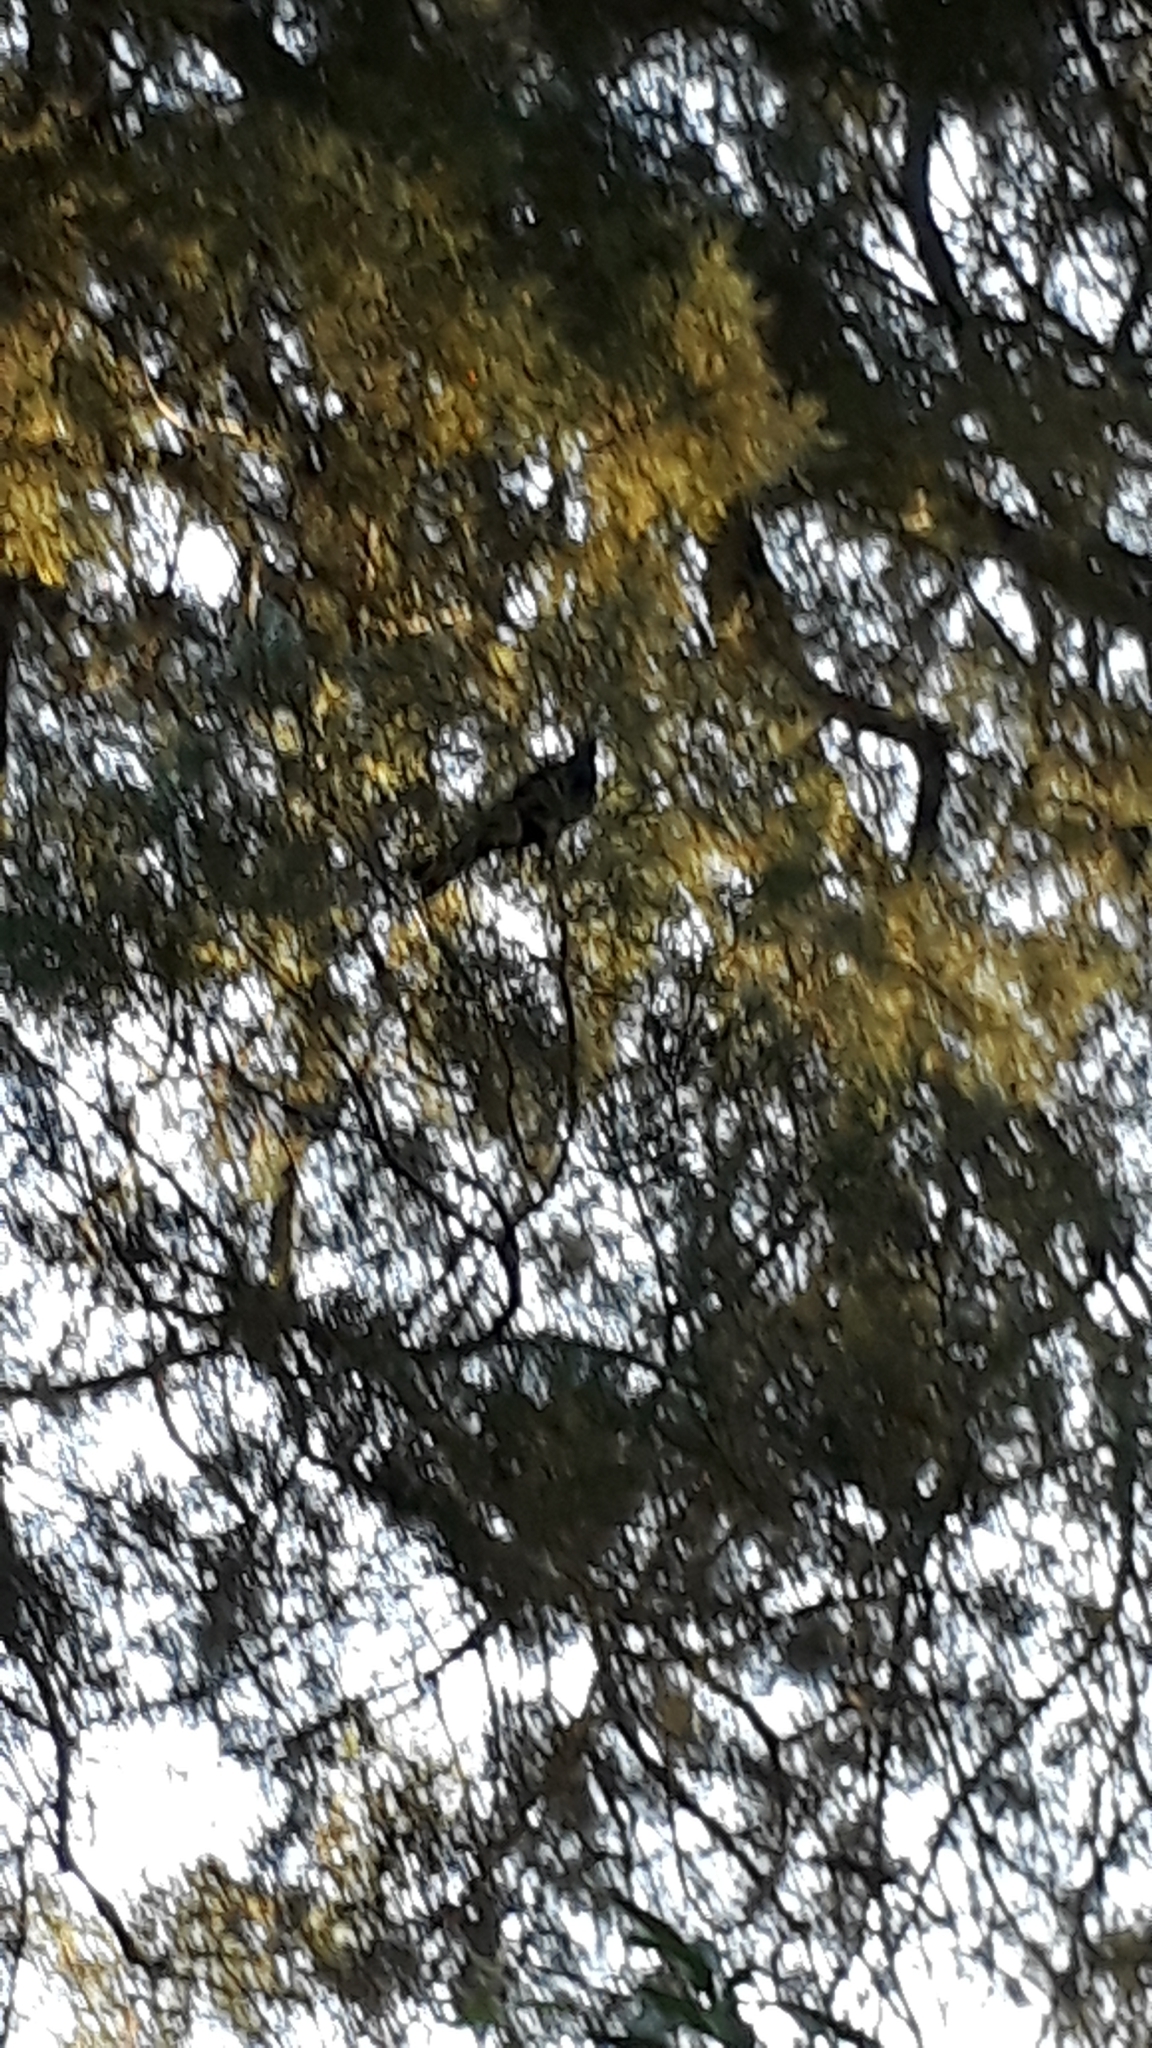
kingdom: Animalia
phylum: Chordata
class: Aves
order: Columbiformes
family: Columbidae
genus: Hemiphaga
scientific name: Hemiphaga novaeseelandiae
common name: New zealand pigeon
